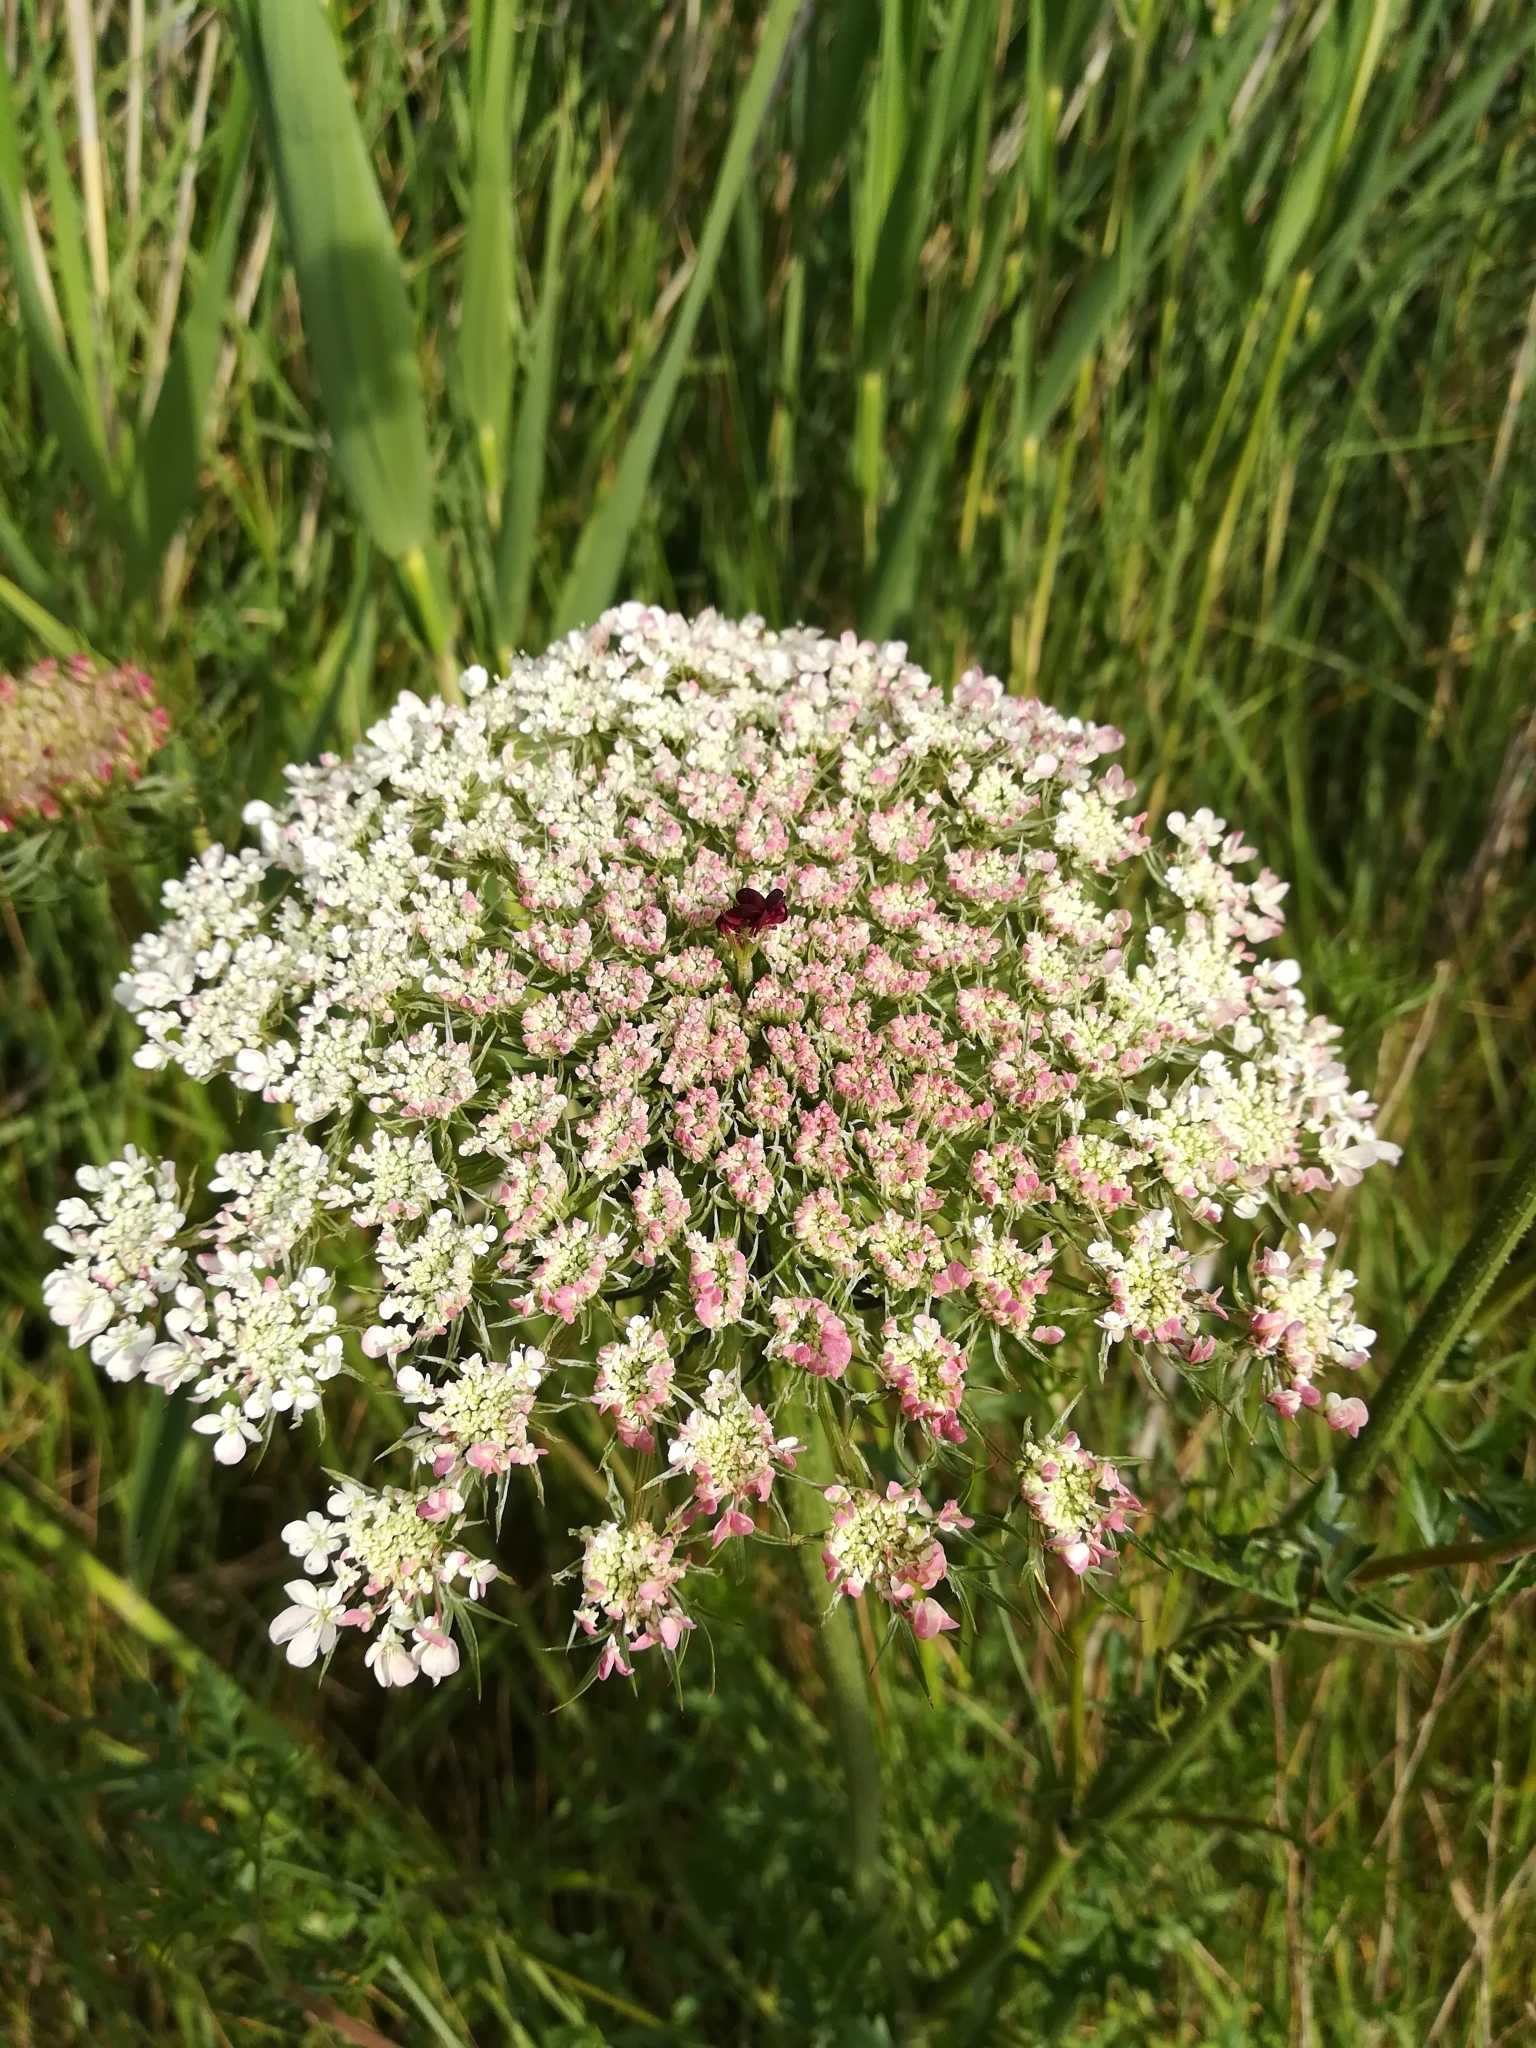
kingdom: Plantae
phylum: Tracheophyta
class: Magnoliopsida
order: Apiales
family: Apiaceae
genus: Daucus
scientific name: Daucus carota
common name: Wild carrot
